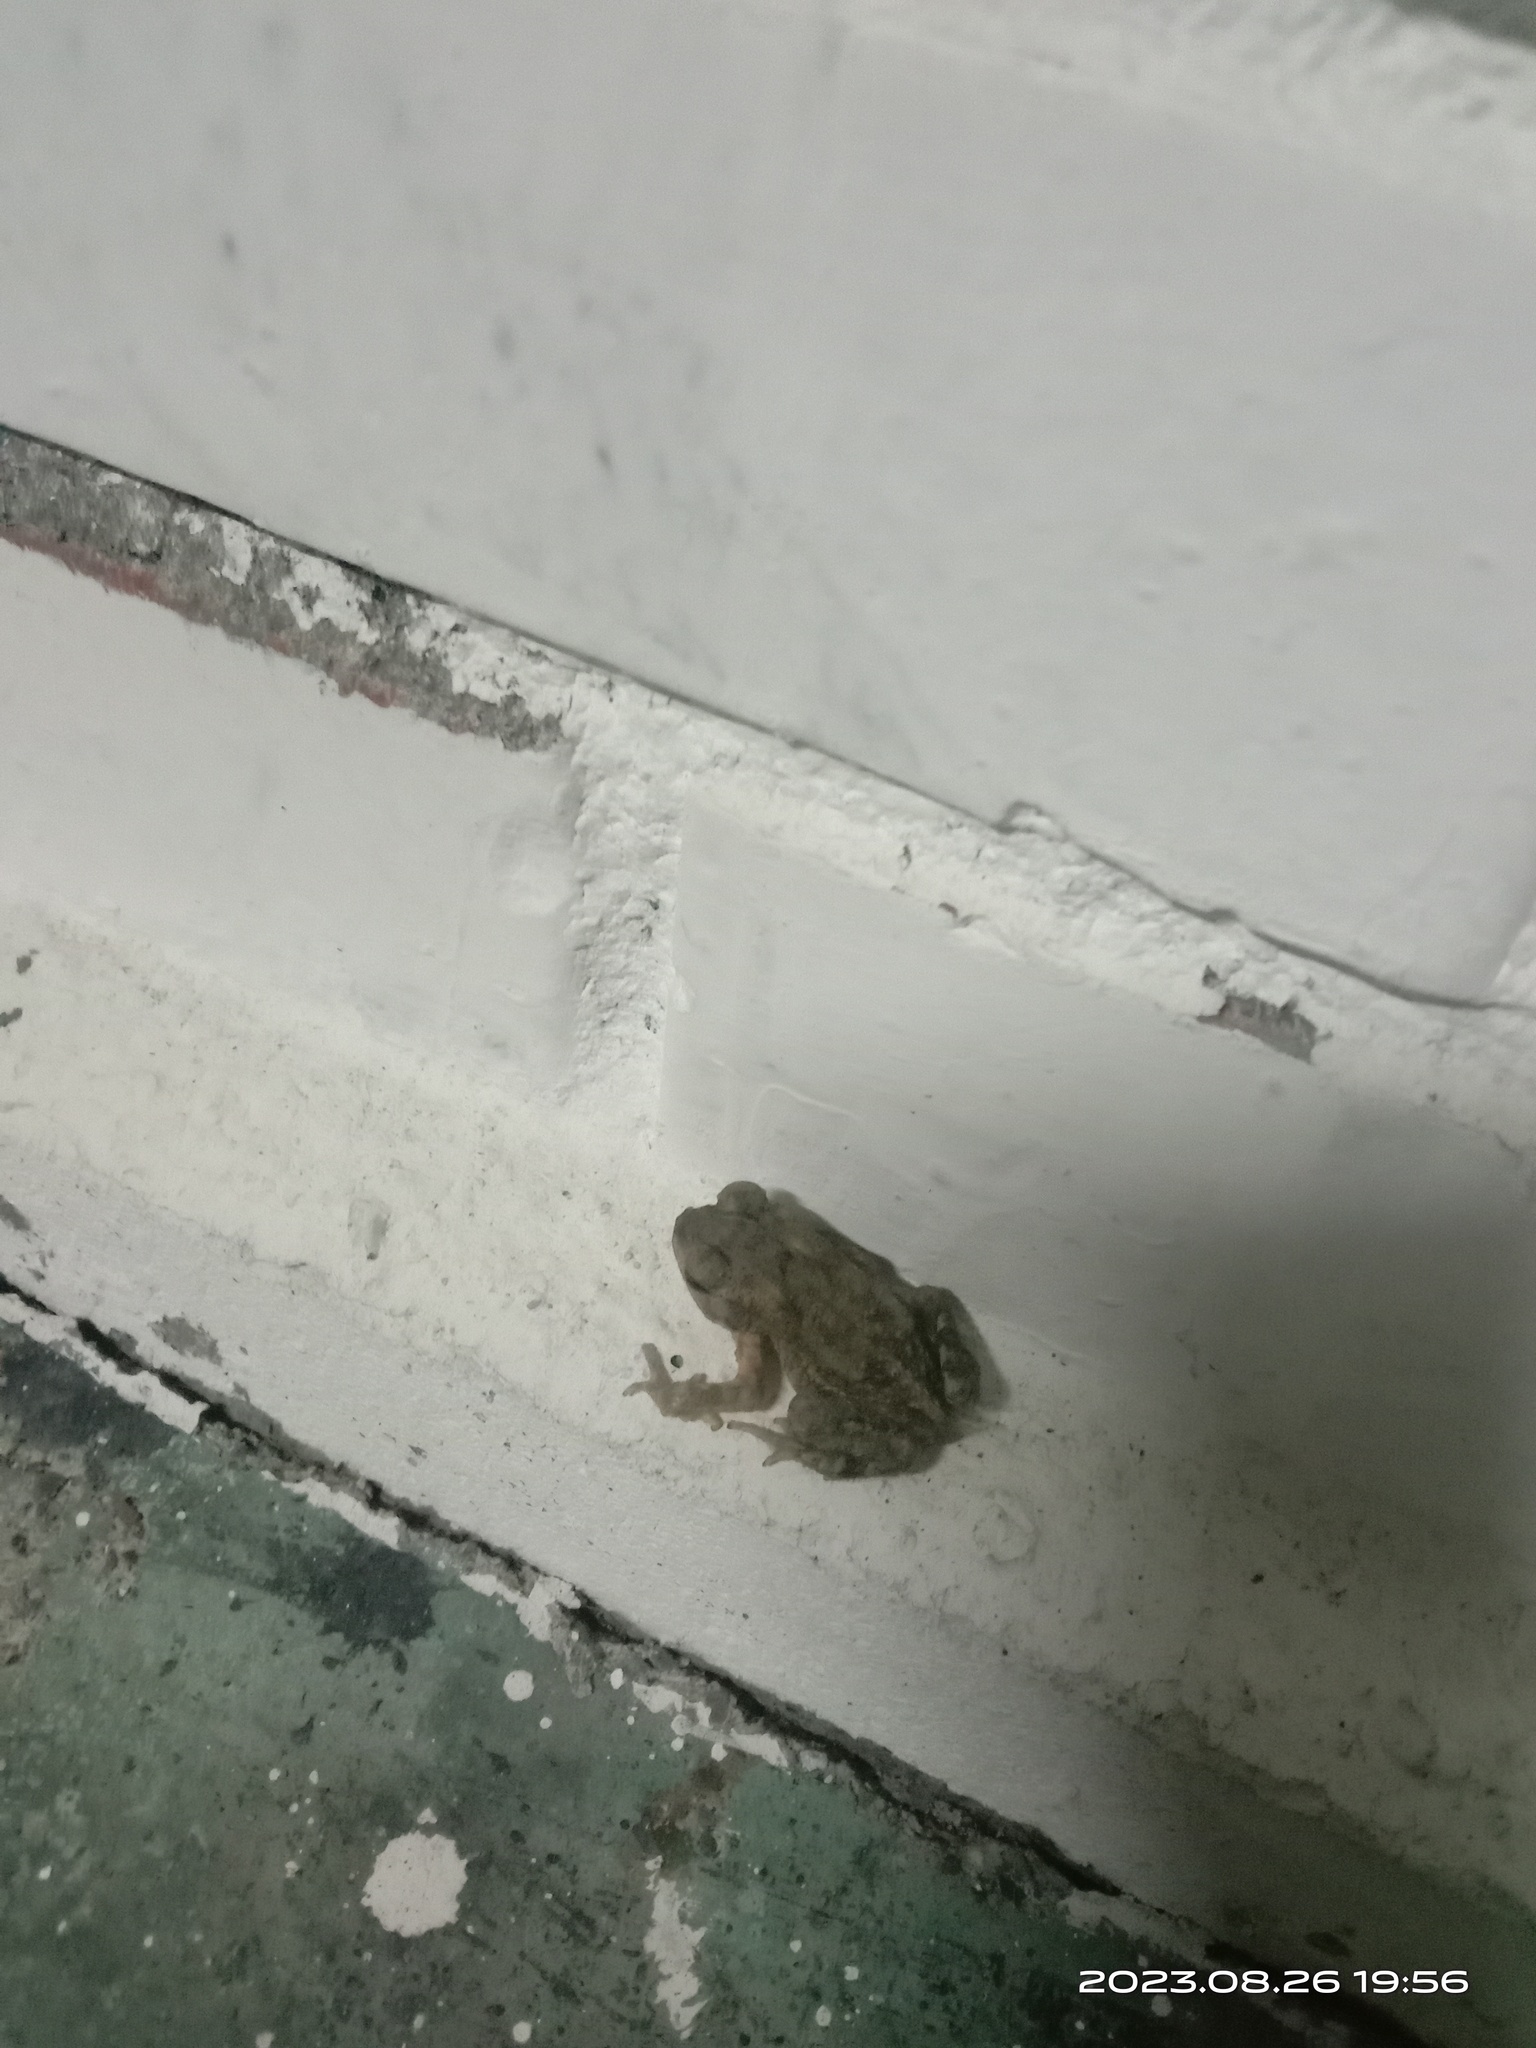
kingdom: Animalia
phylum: Chordata
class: Amphibia
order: Anura
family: Bufonidae
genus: Duttaphrynus
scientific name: Duttaphrynus melanostictus
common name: Common sunda toad
